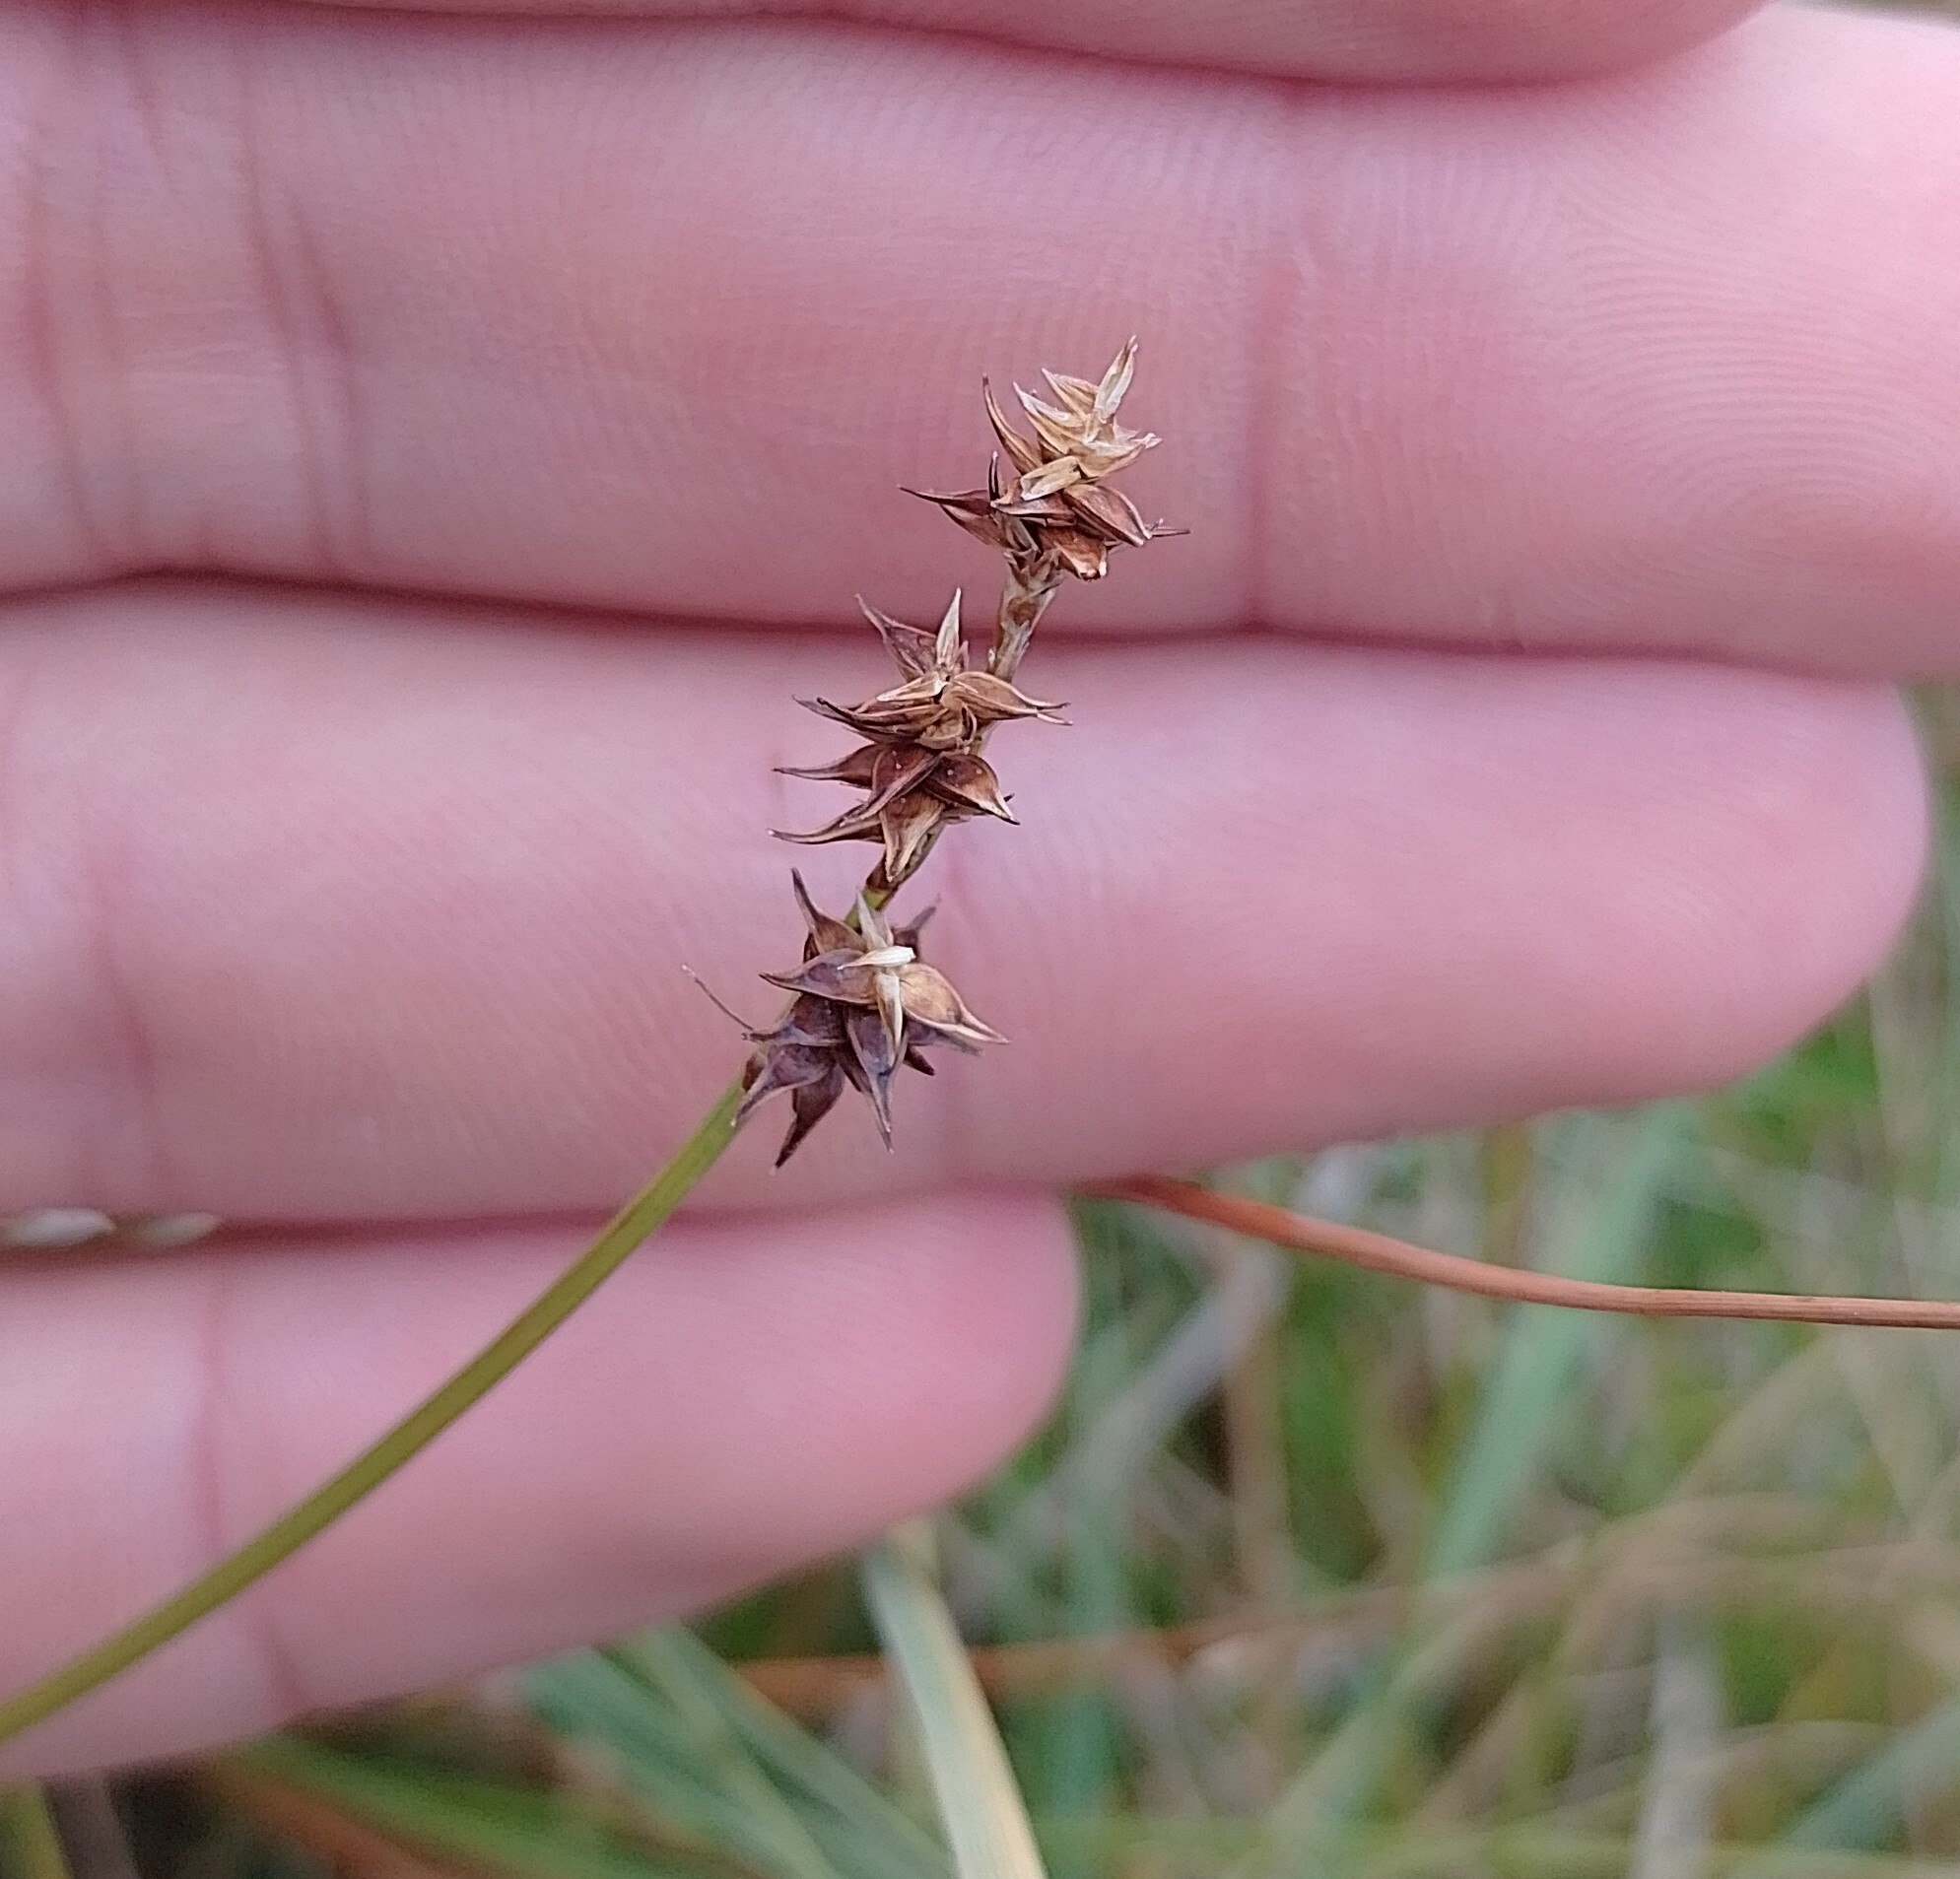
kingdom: Plantae
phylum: Tracheophyta
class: Liliopsida
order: Poales
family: Cyperaceae
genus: Carex
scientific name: Carex echinata
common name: Star sedge
